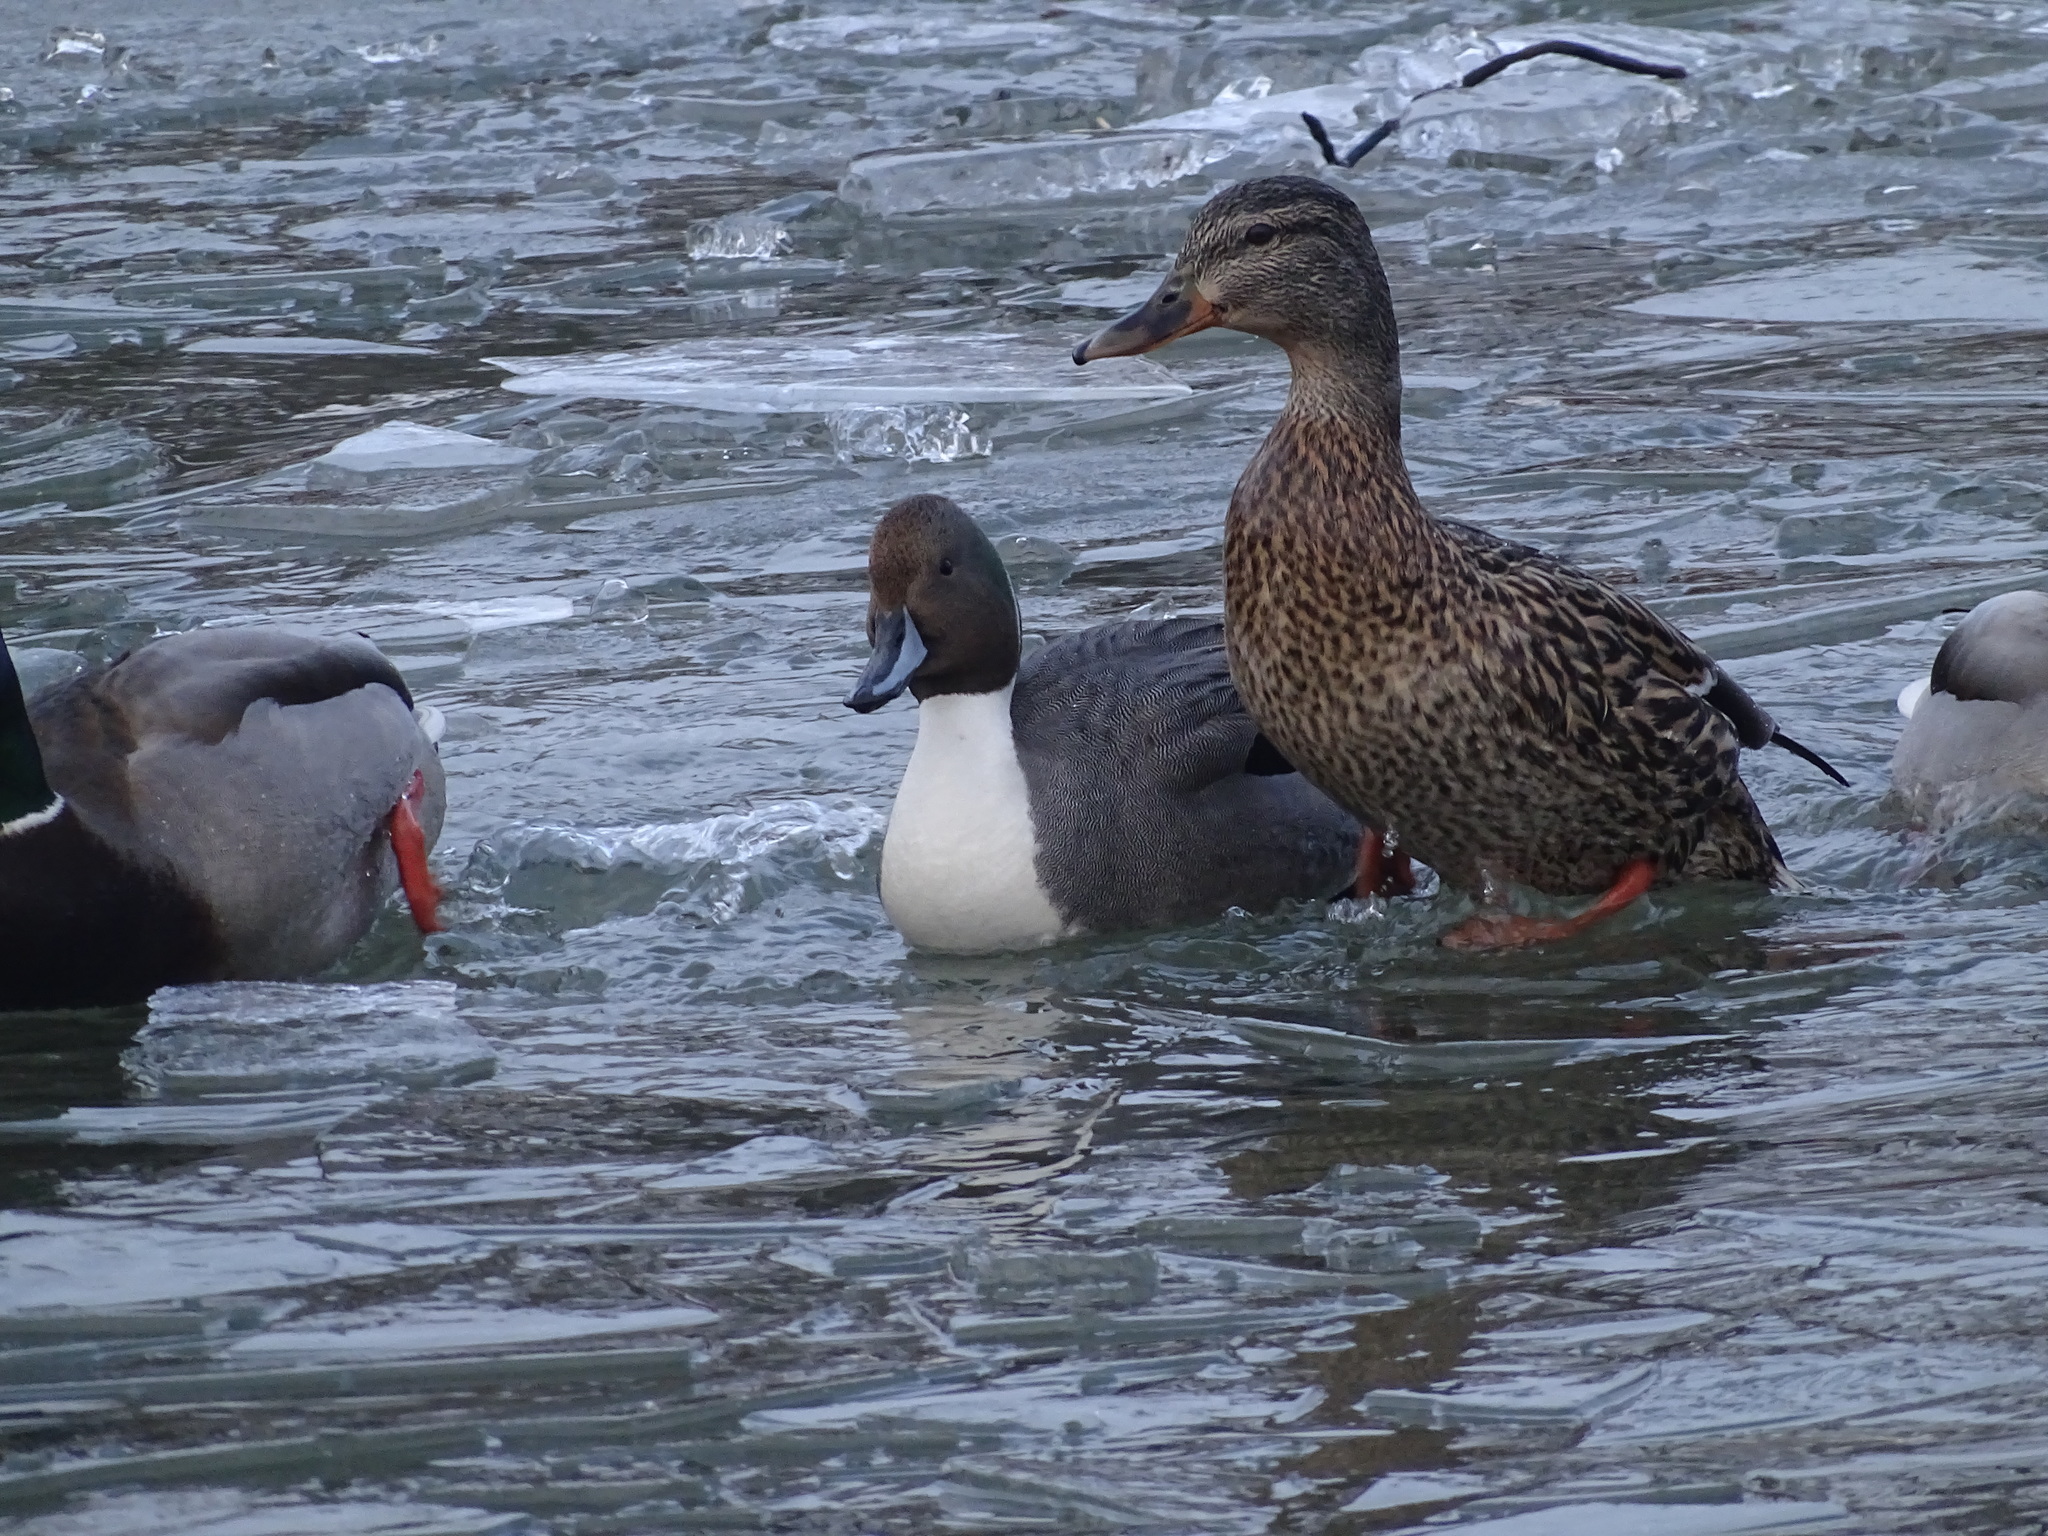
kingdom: Animalia
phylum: Chordata
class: Aves
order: Anseriformes
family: Anatidae
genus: Anas
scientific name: Anas platyrhynchos
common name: Mallard
